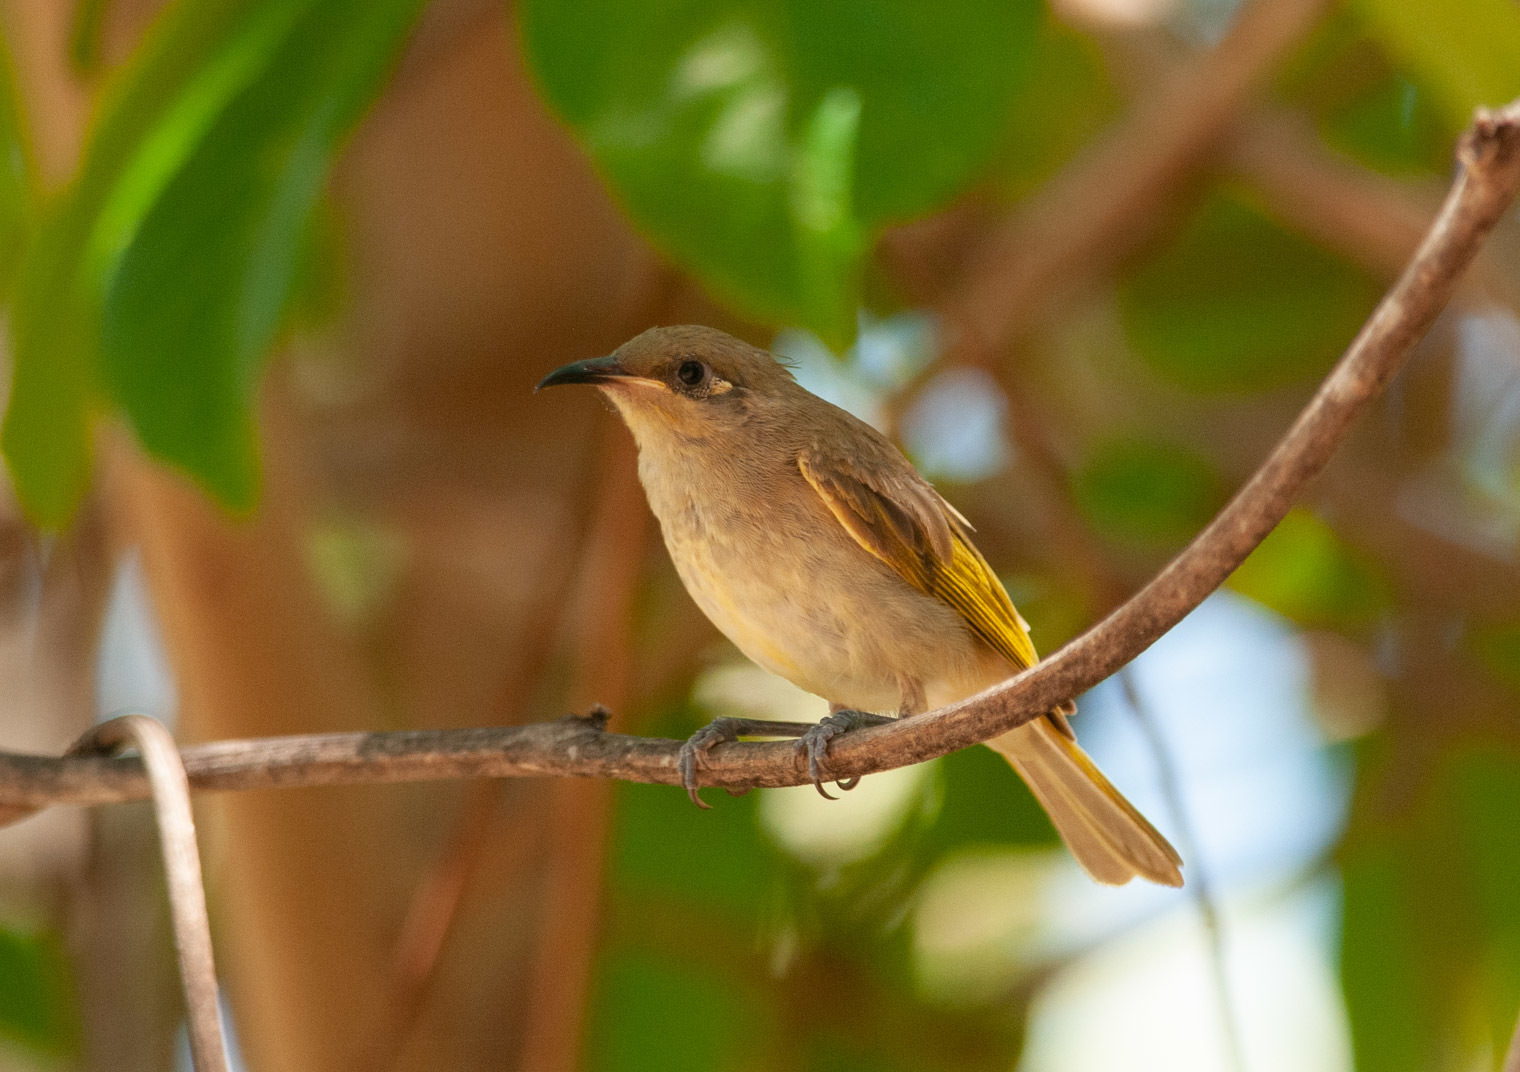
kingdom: Animalia
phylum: Chordata
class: Aves
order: Passeriformes
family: Meliphagidae
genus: Lichmera
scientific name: Lichmera indistincta
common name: Brown honeyeater
